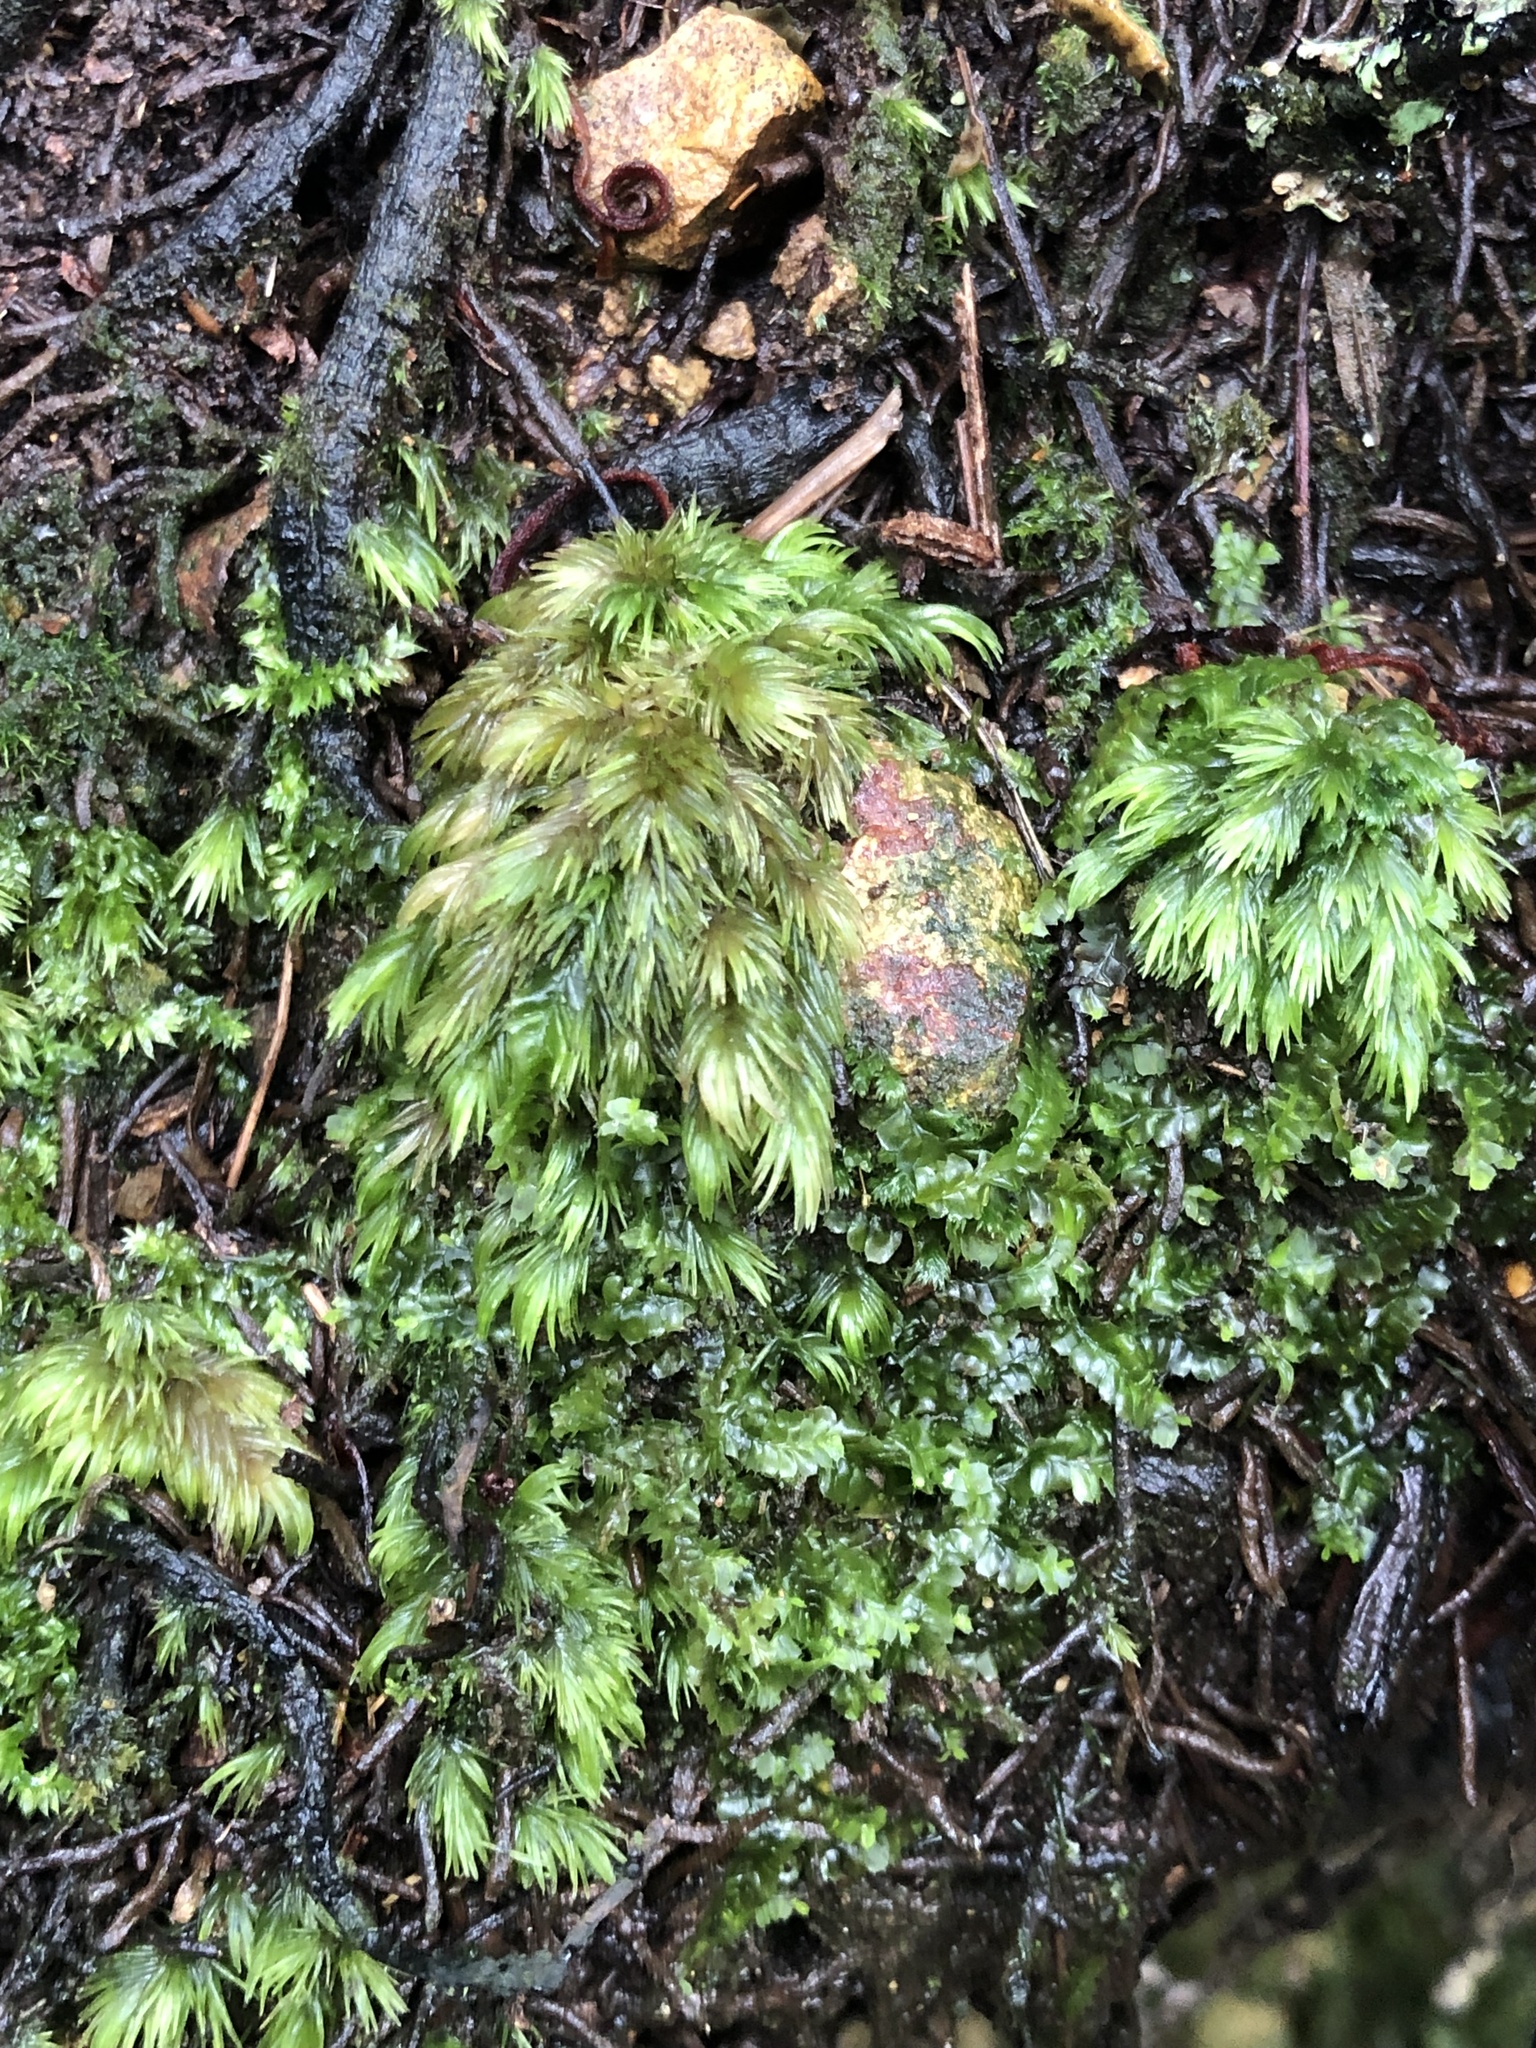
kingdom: Plantae
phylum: Bryophyta
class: Bryopsida
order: Dicranales
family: Leucobryaceae
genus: Leucobryum
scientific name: Leucobryum javense
